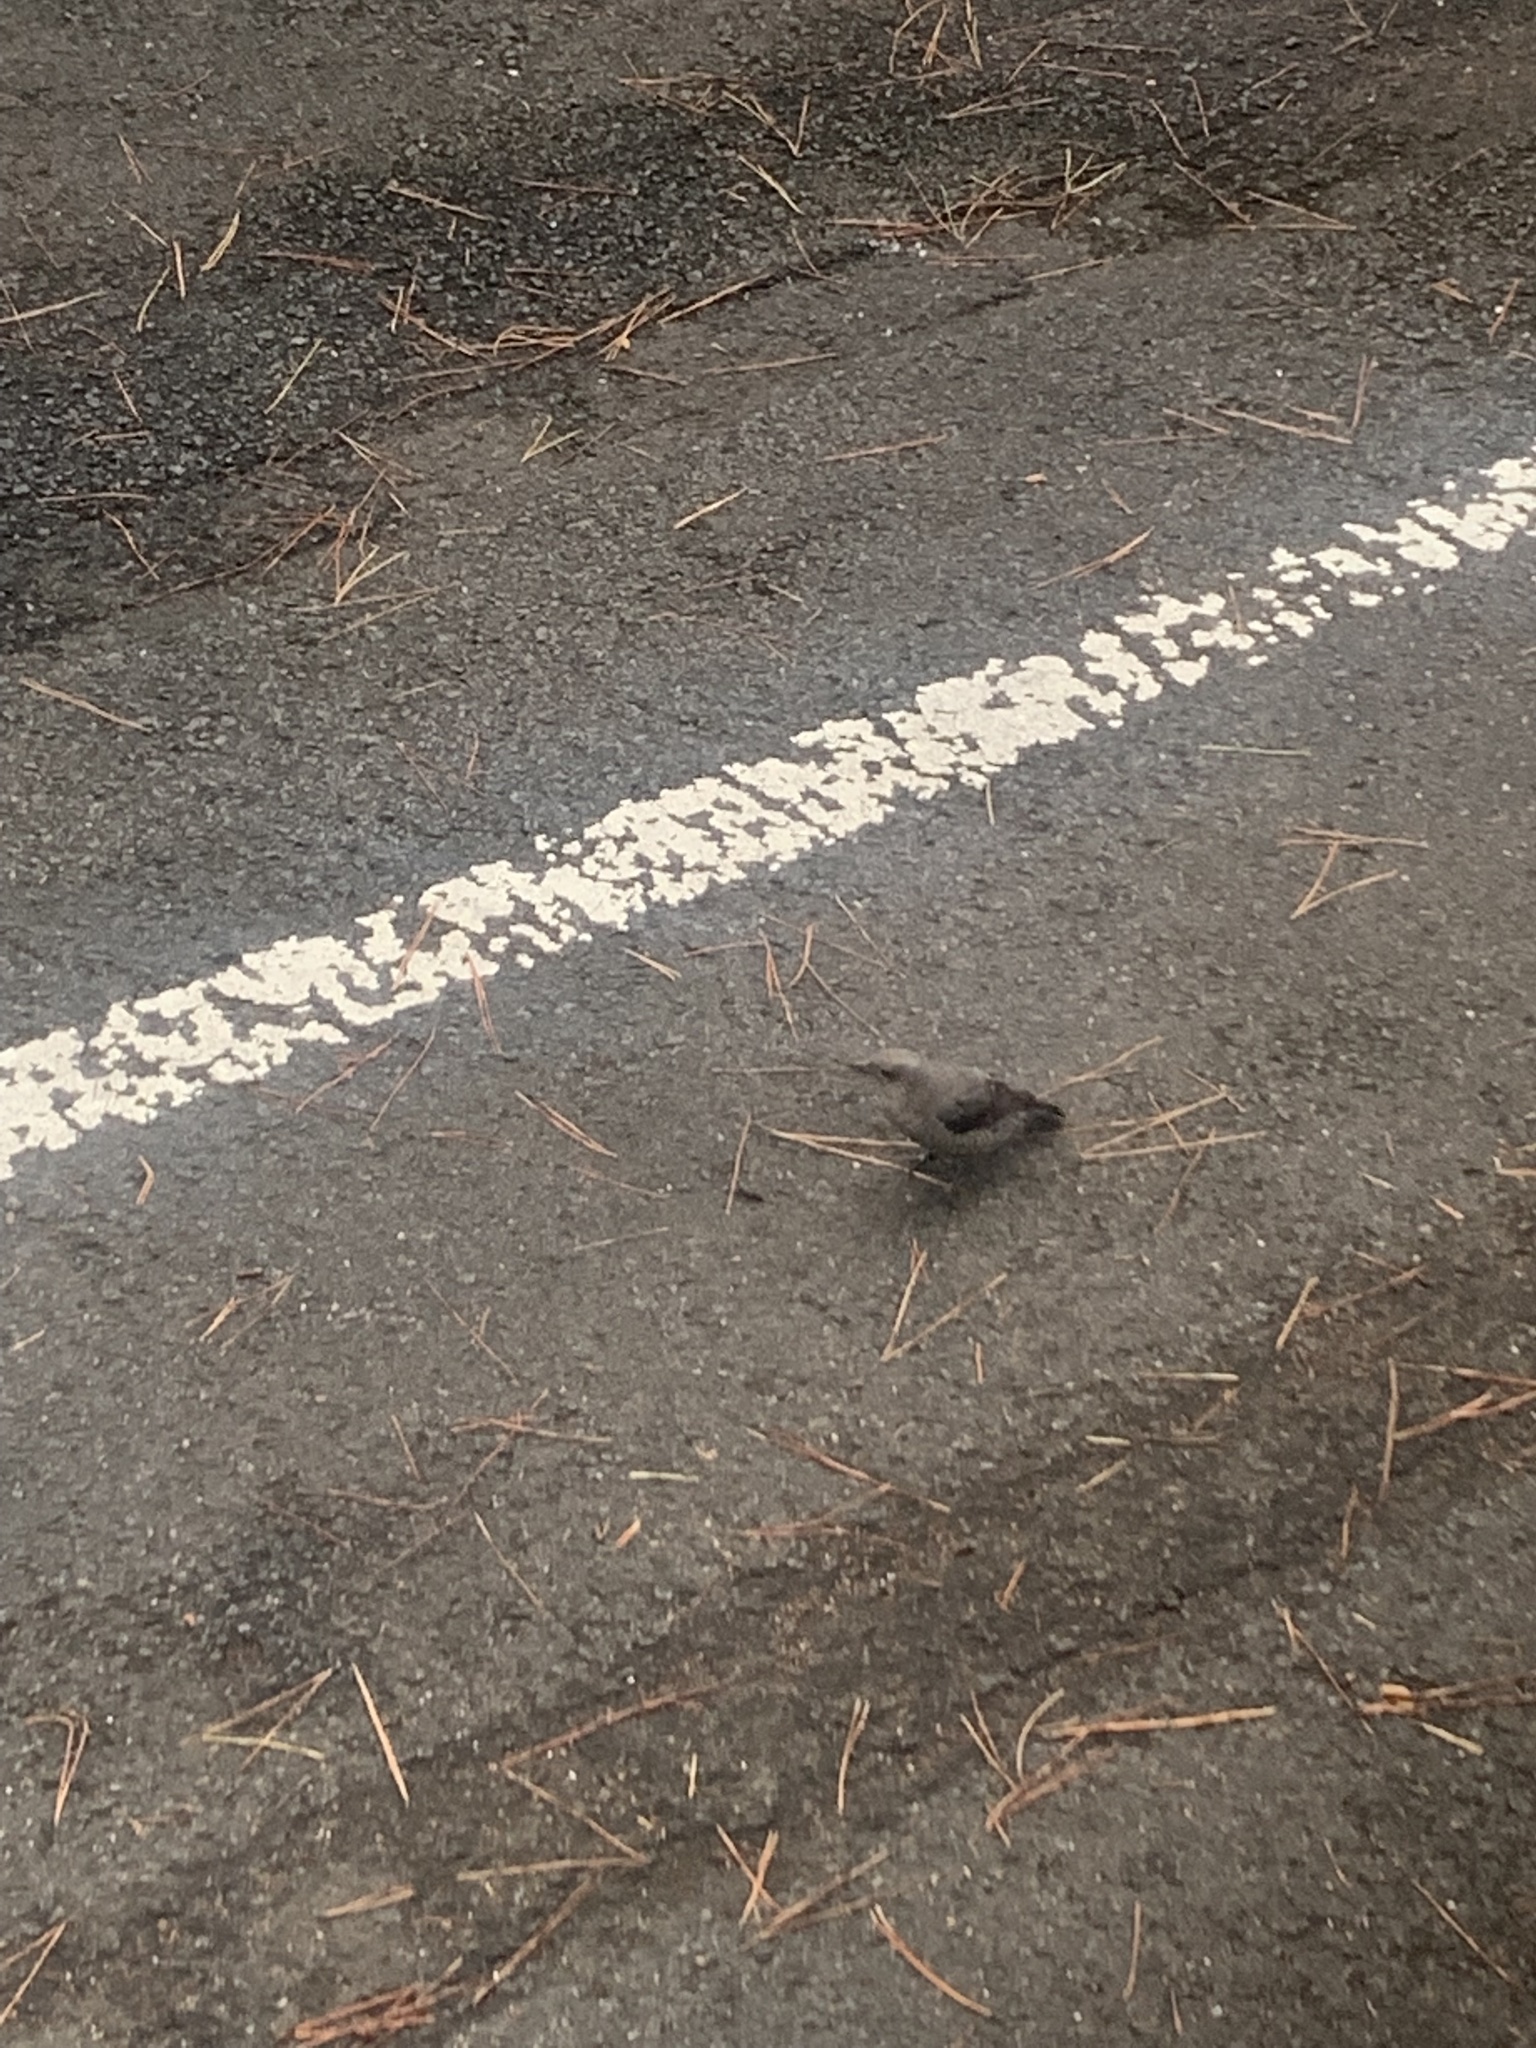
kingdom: Animalia
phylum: Chordata
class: Aves
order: Passeriformes
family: Muscicapidae
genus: Monticola
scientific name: Monticola solitarius
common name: Blue rock thrush
